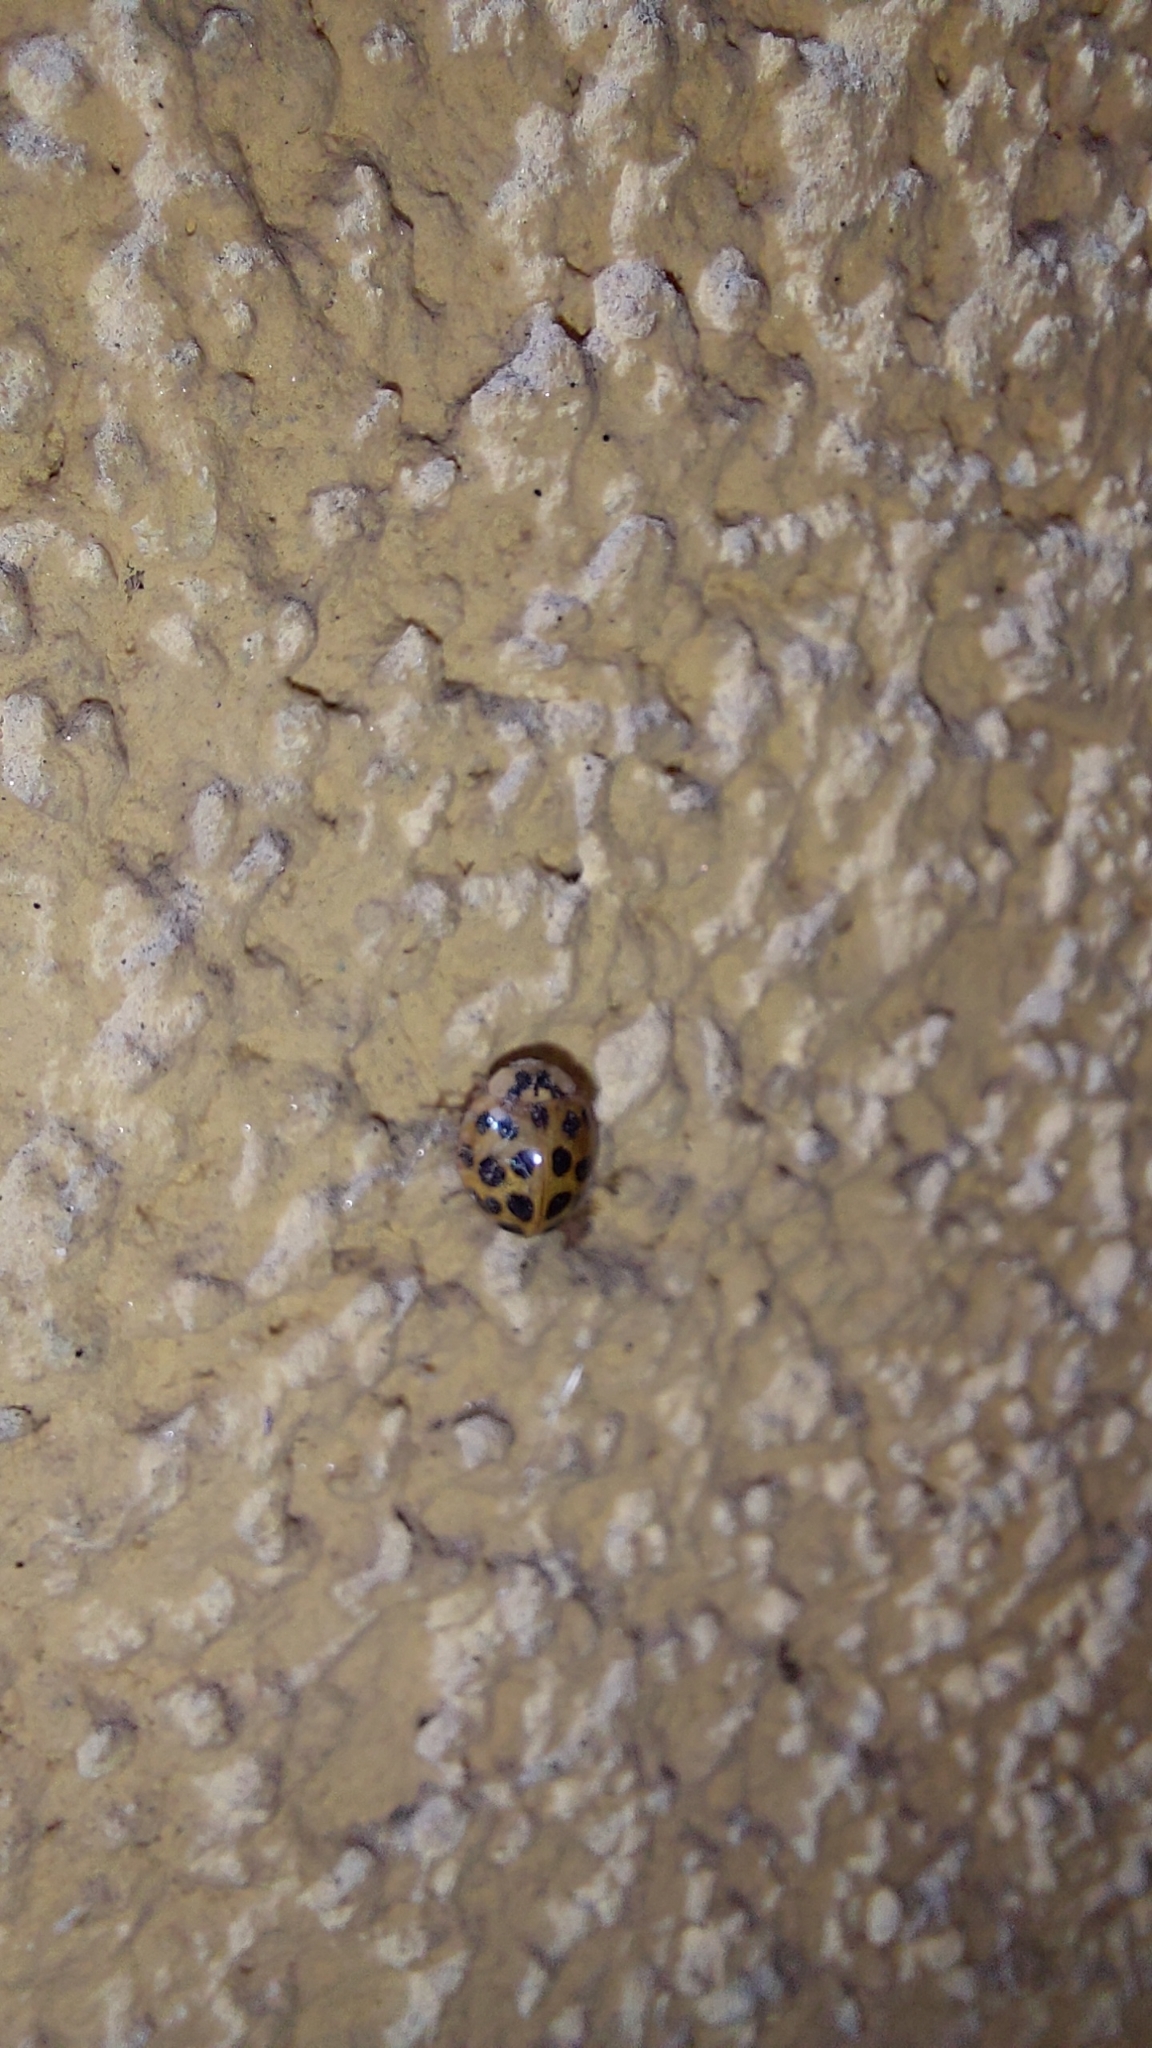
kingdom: Animalia
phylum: Arthropoda
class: Insecta
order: Coleoptera
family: Coccinellidae
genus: Harmonia
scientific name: Harmonia axyridis
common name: Harlequin ladybird
